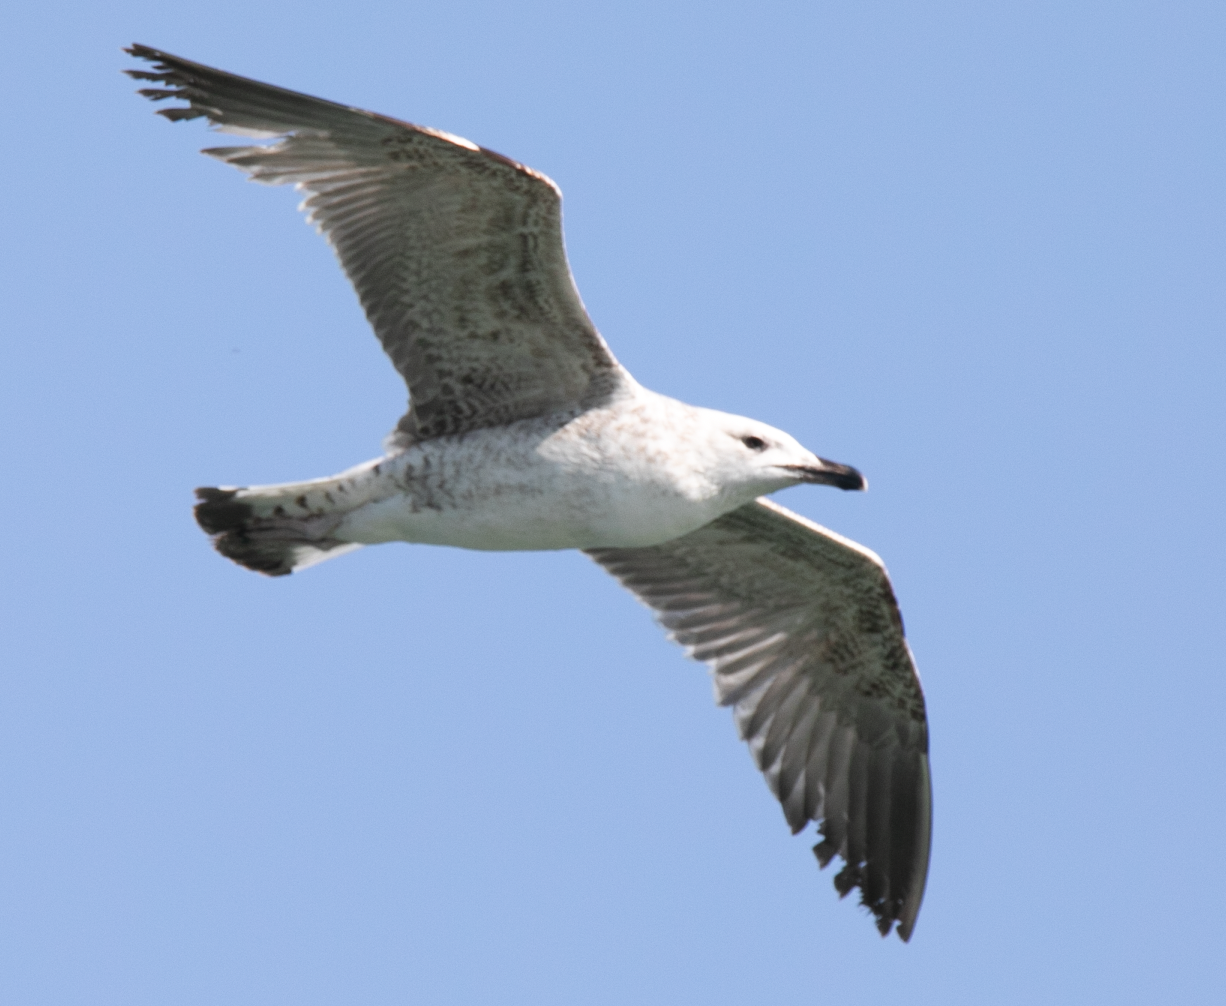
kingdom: Animalia
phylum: Chordata
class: Aves
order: Charadriiformes
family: Laridae
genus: Larus
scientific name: Larus michahellis
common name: Yellow-legged gull
